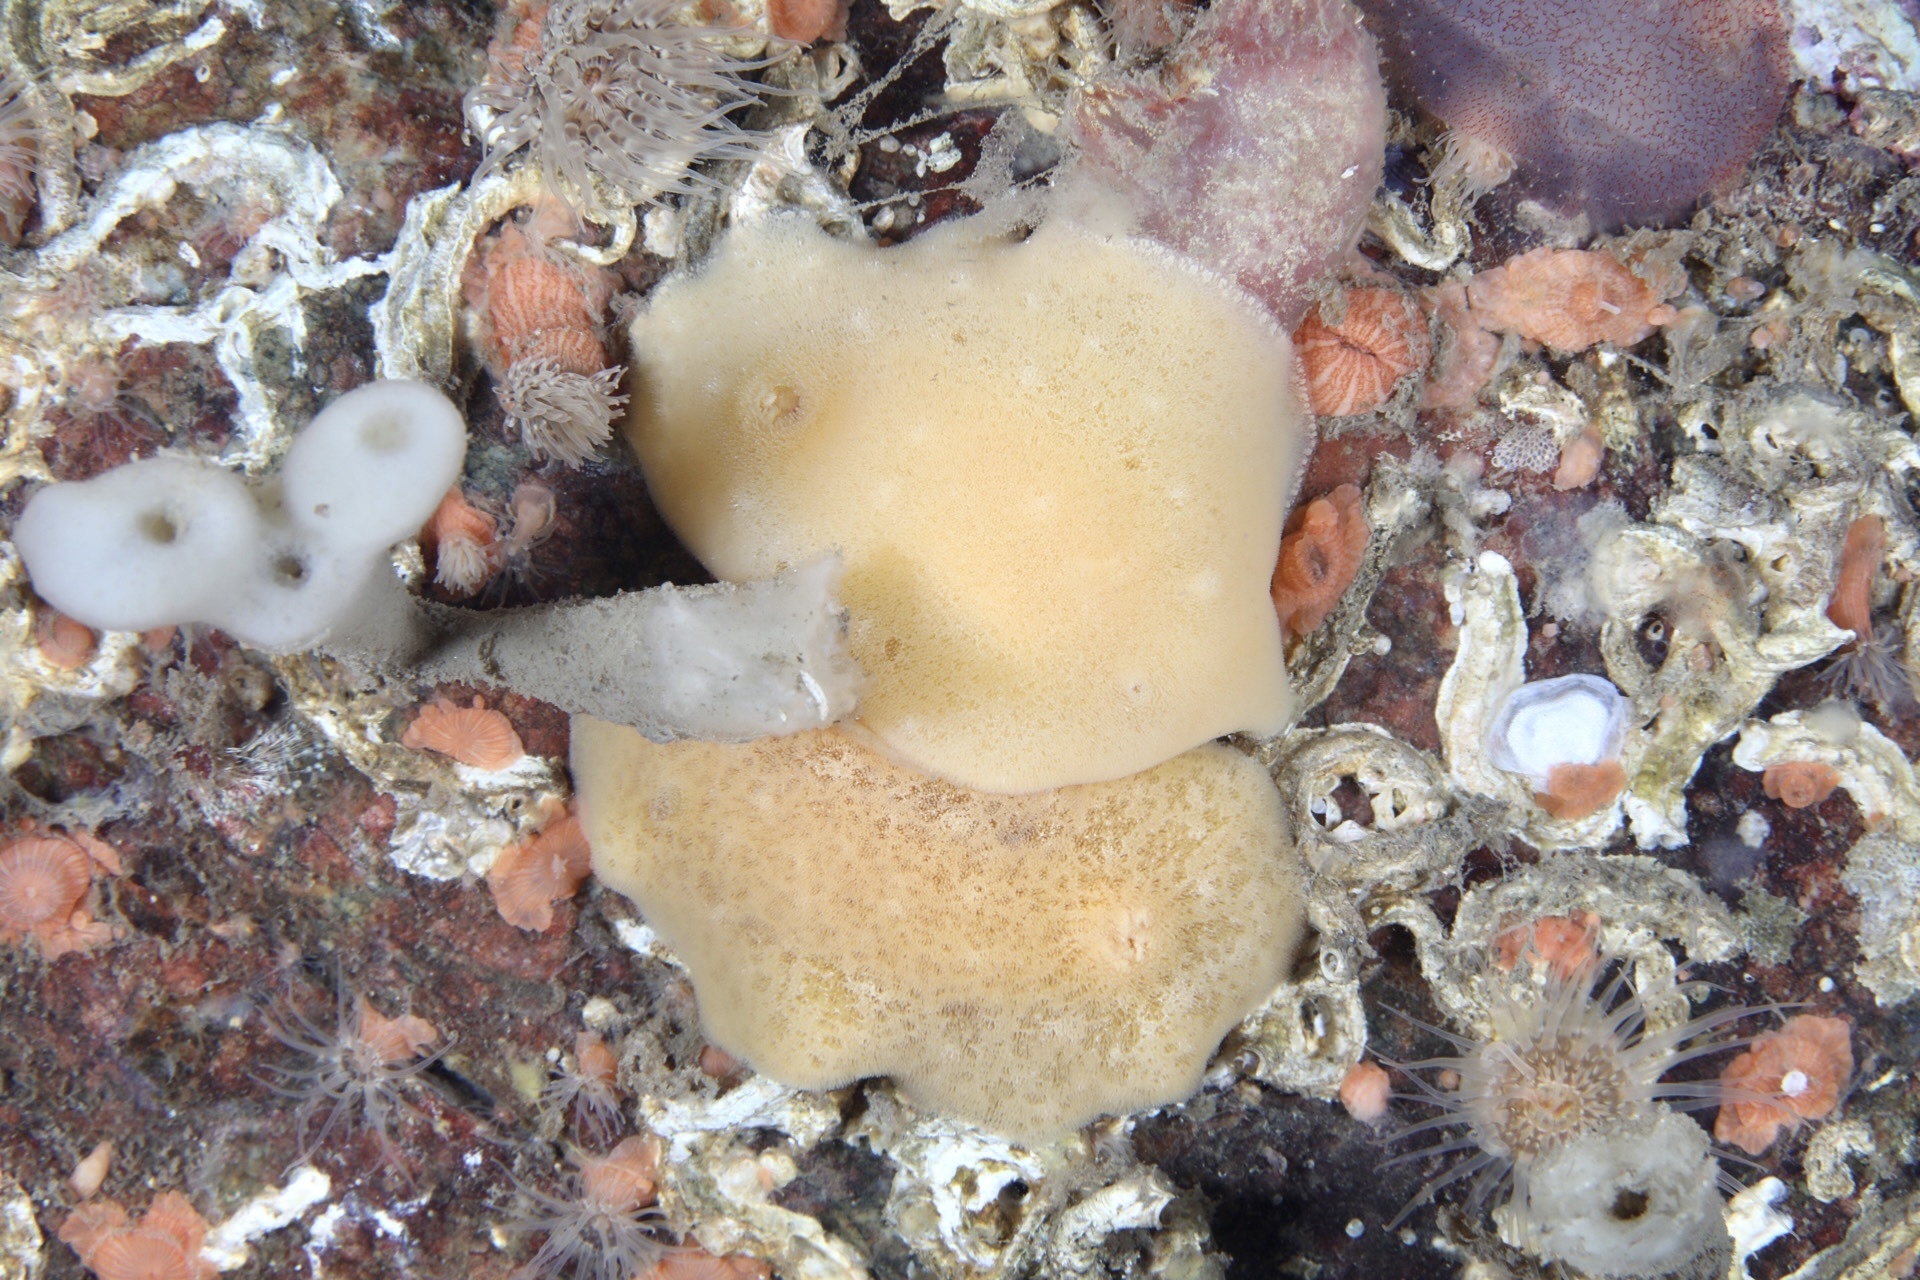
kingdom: Animalia
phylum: Mollusca
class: Gastropoda
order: Nudibranchia
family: Discodorididae
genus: Jorunna
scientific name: Jorunna tomentosa
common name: Grey sea slug
